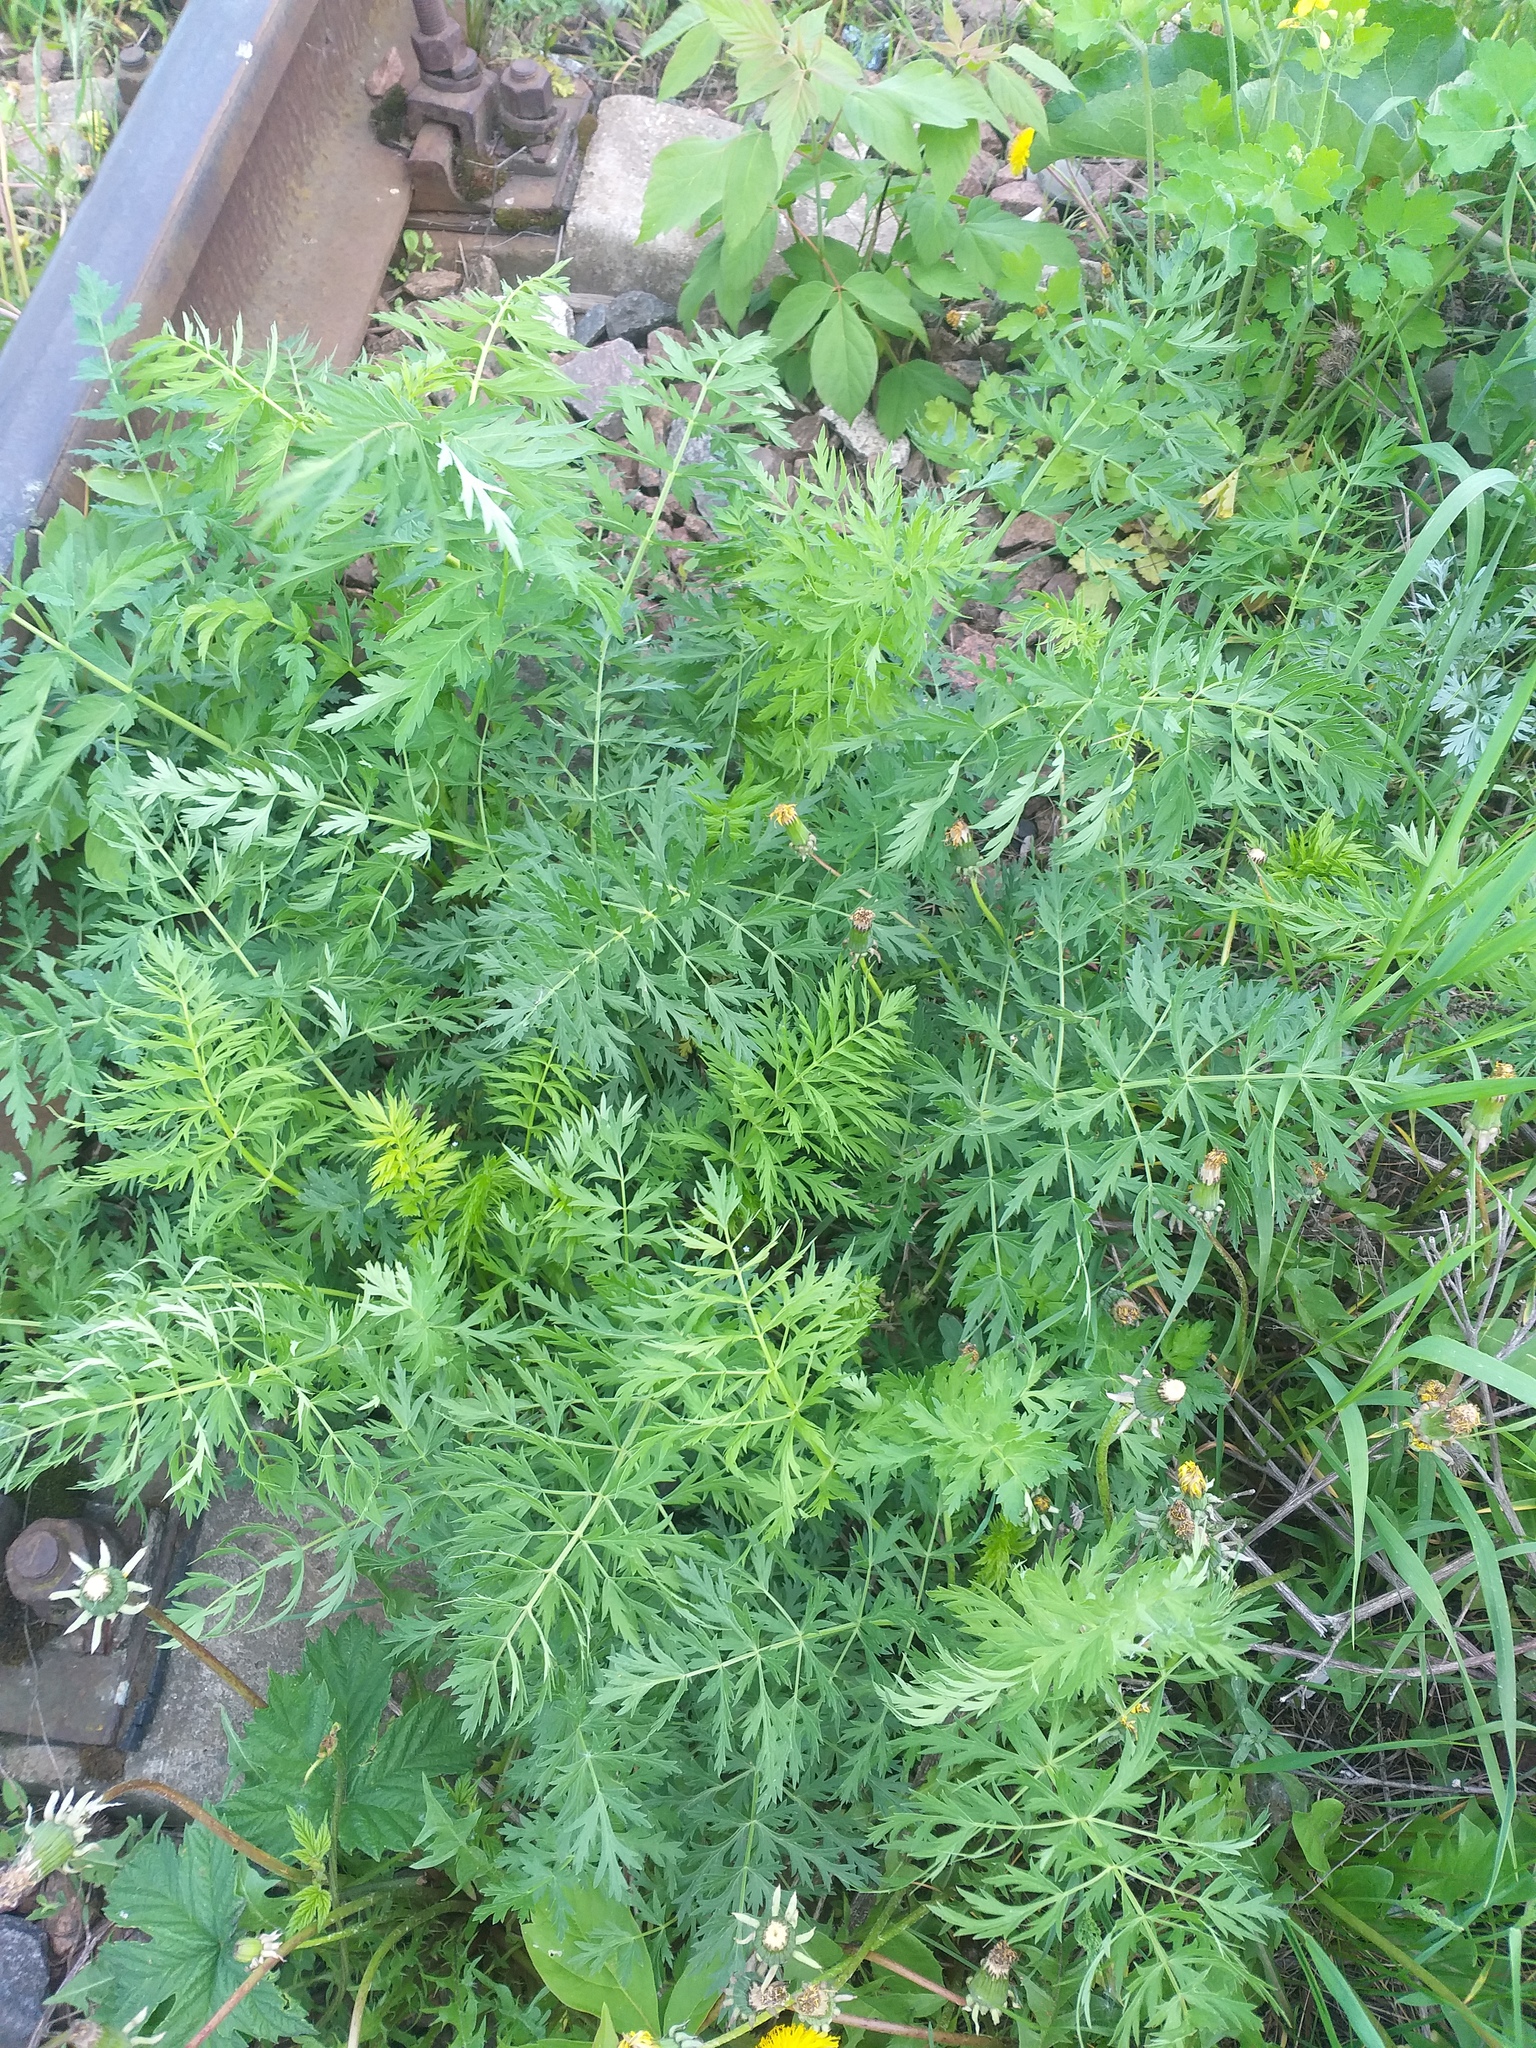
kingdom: Plantae
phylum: Tracheophyta
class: Magnoliopsida
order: Apiales
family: Apiaceae
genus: Seseli
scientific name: Seseli libanotis
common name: Mooncarrot
